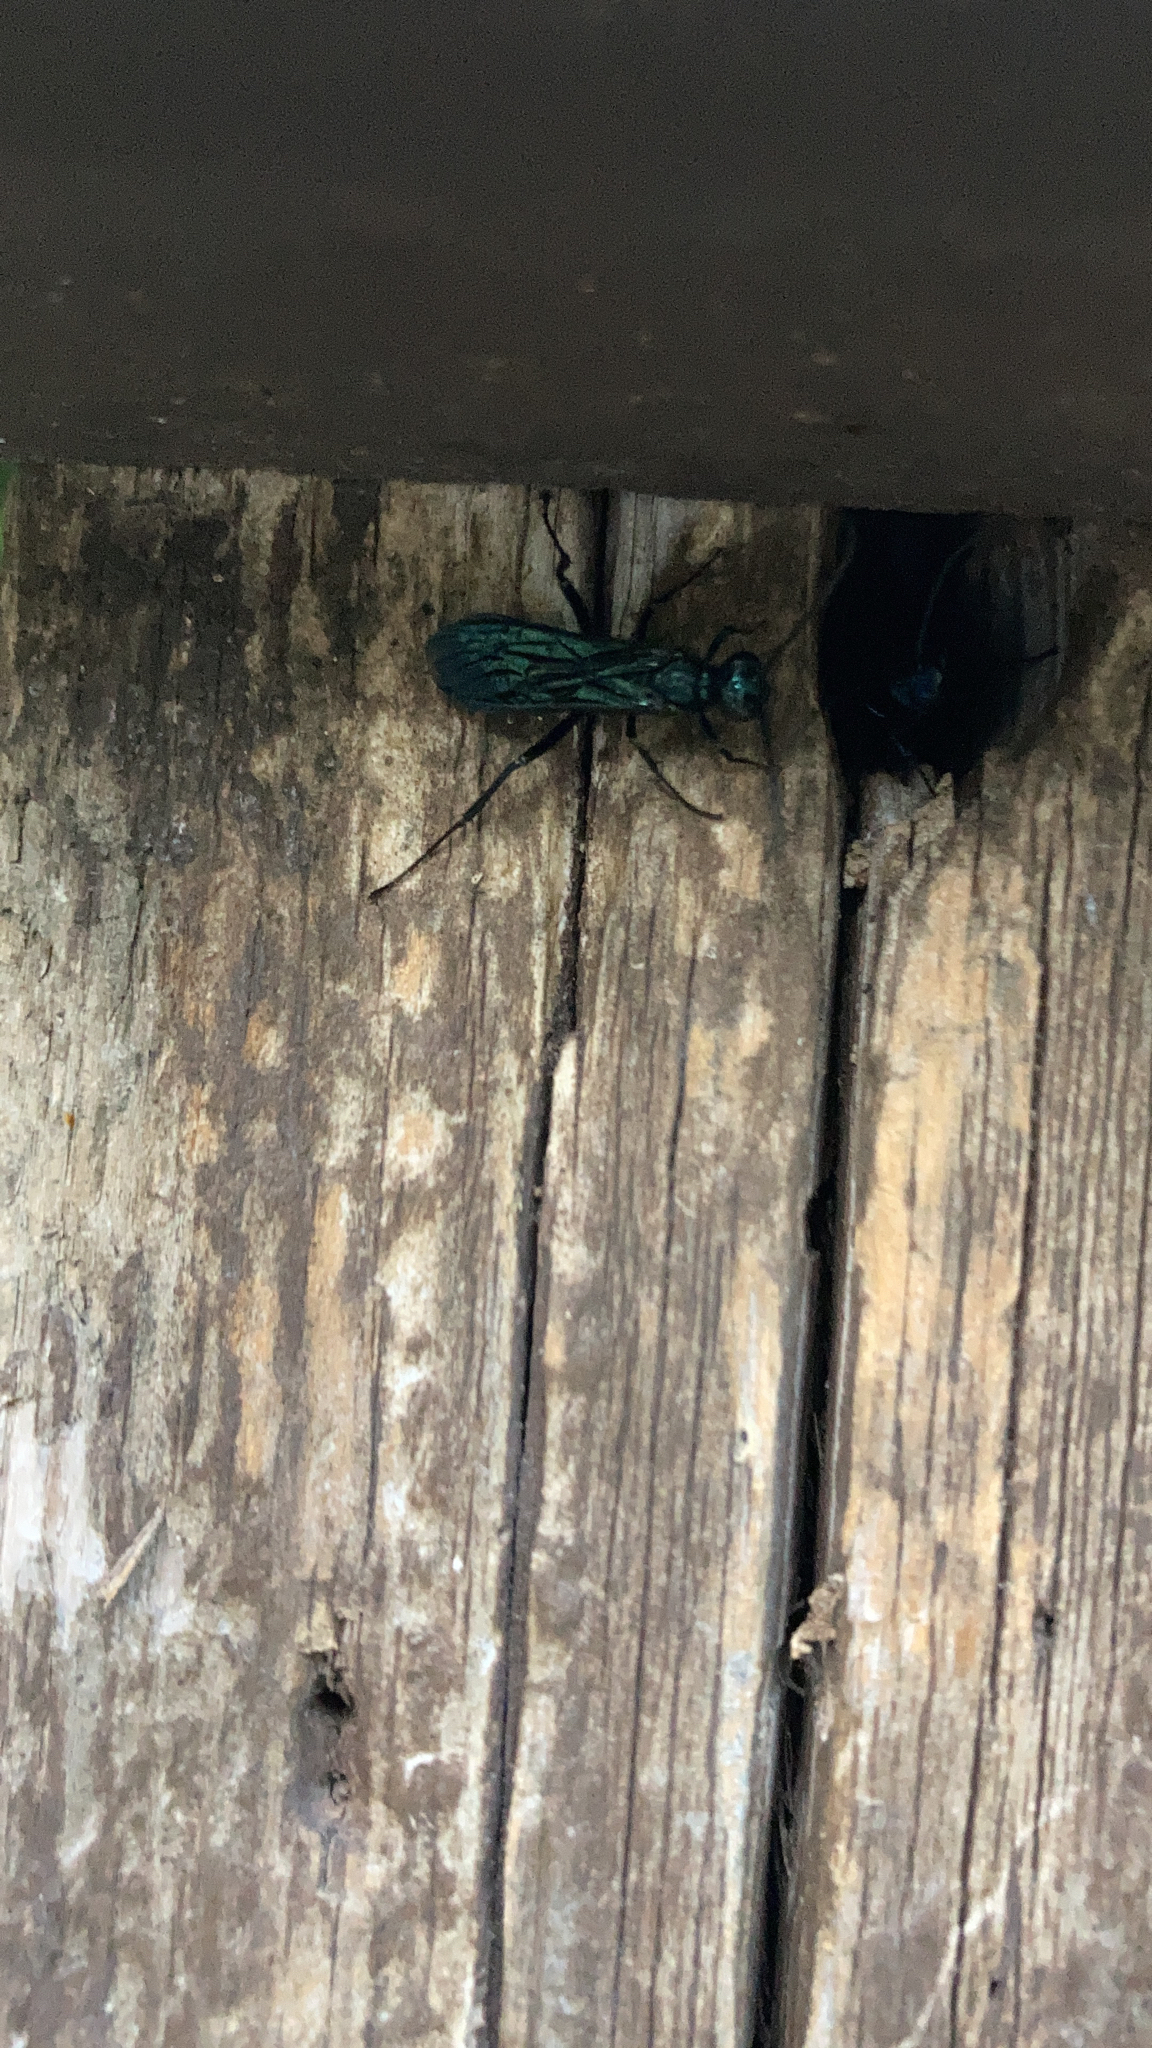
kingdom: Animalia
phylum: Arthropoda
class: Insecta
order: Hymenoptera
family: Sphecidae
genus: Chalybion
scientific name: Chalybion californicum
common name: Mud dauber
